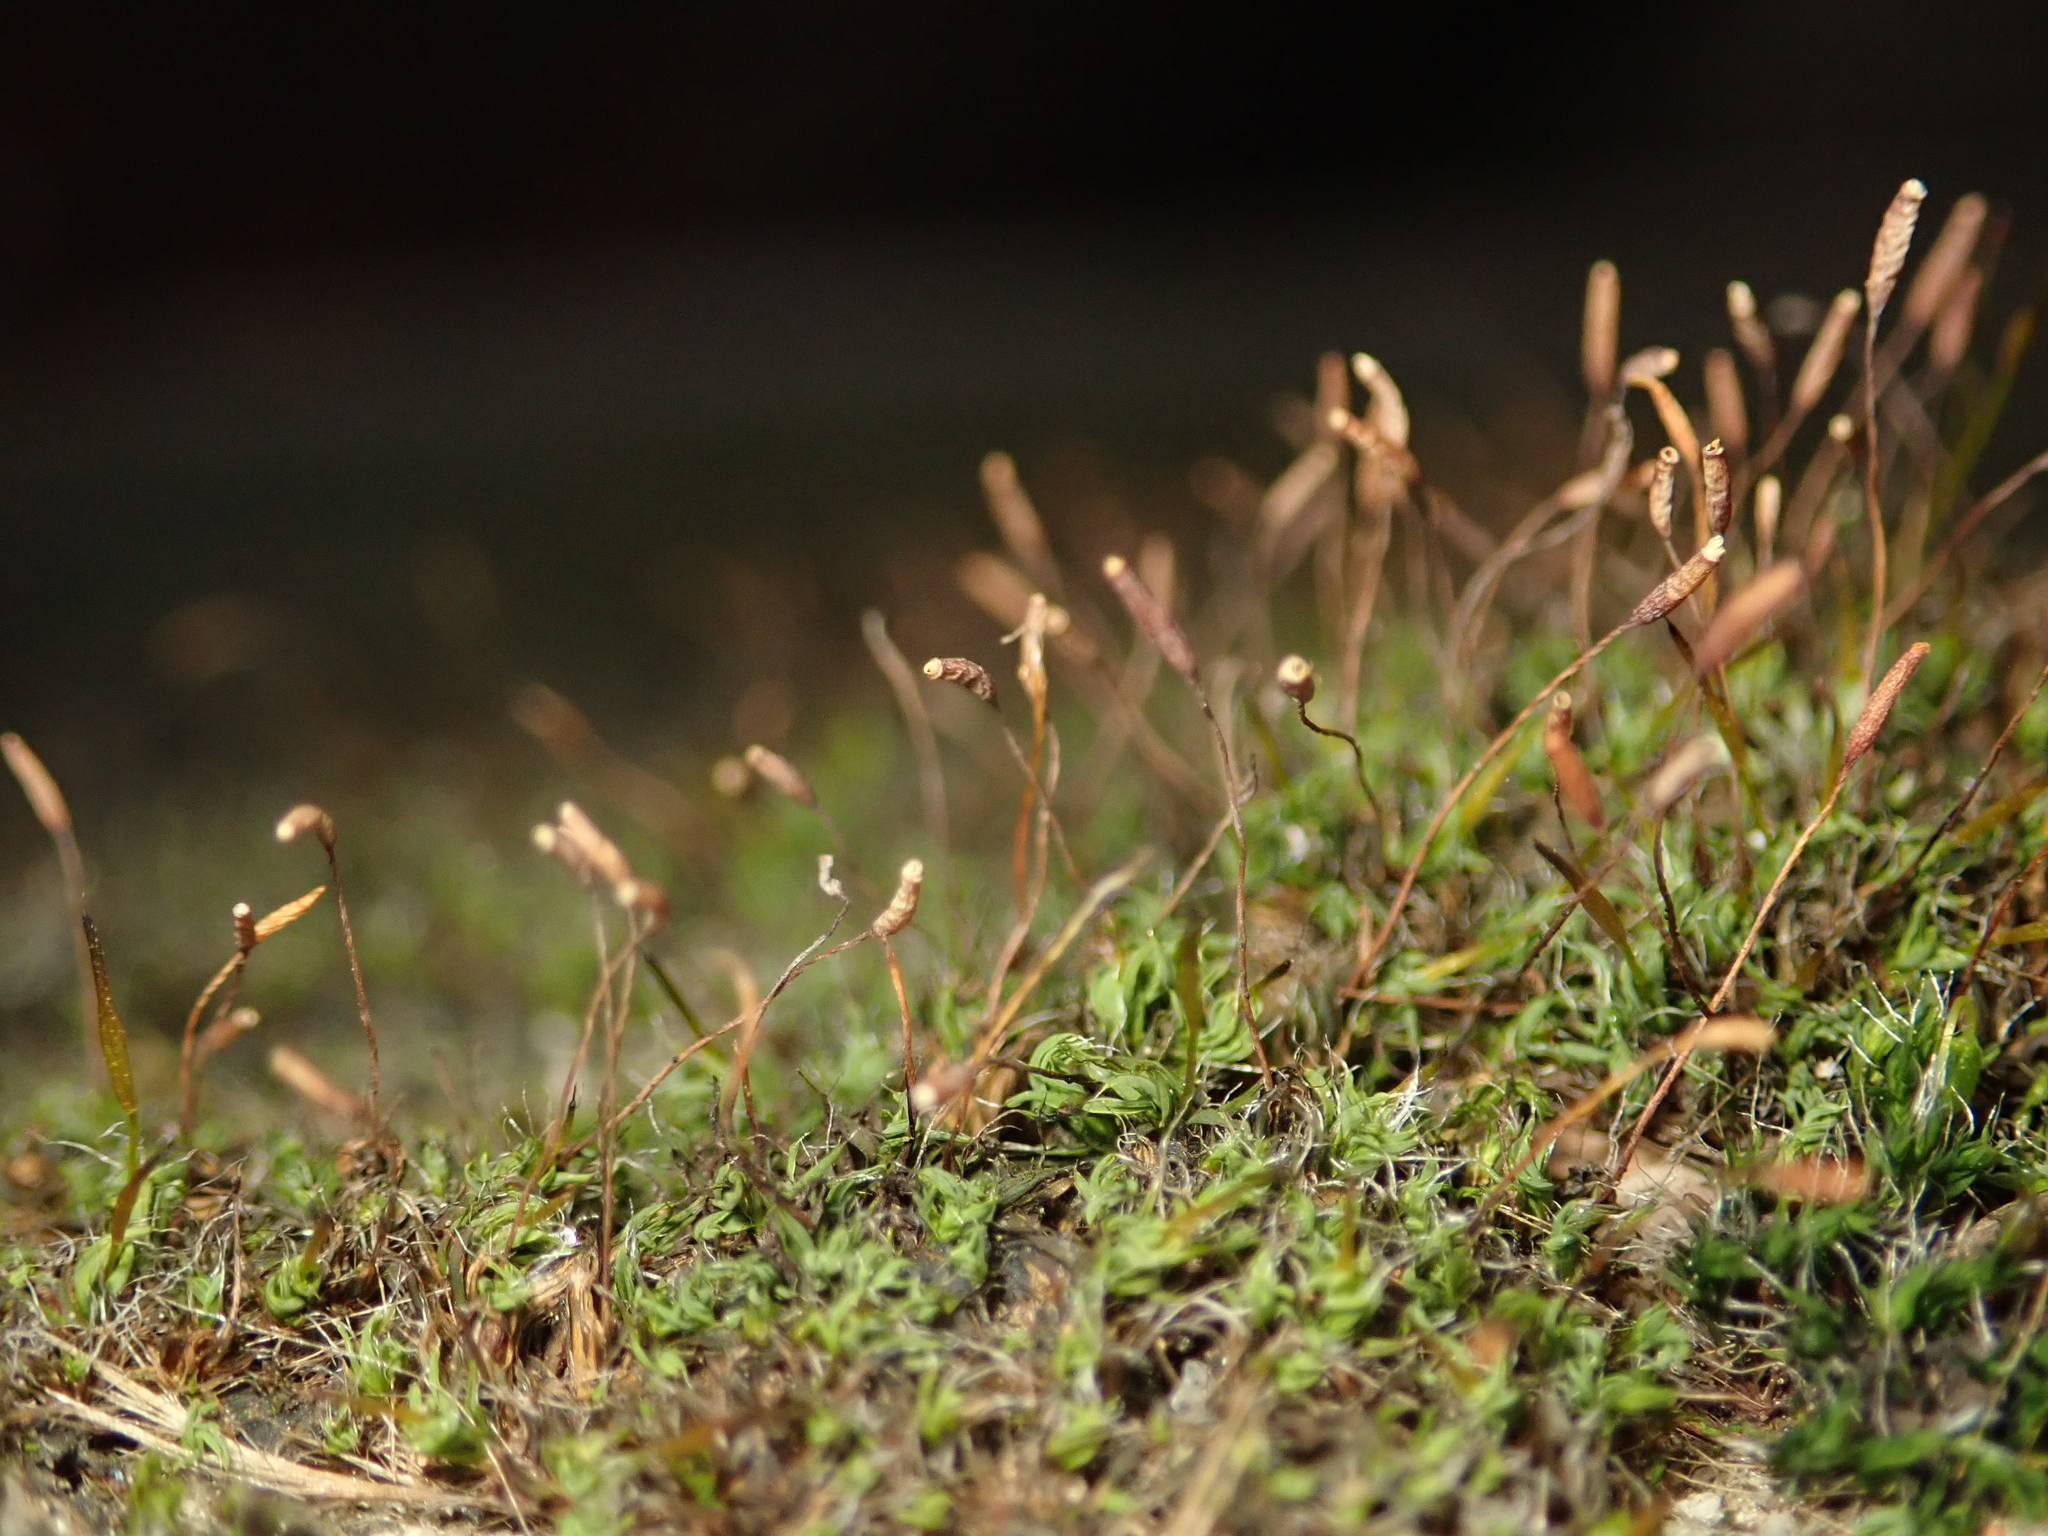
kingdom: Plantae
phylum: Bryophyta
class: Bryopsida
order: Pottiales
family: Pottiaceae
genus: Tortula
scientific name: Tortula muralis
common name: Wall screw-moss
